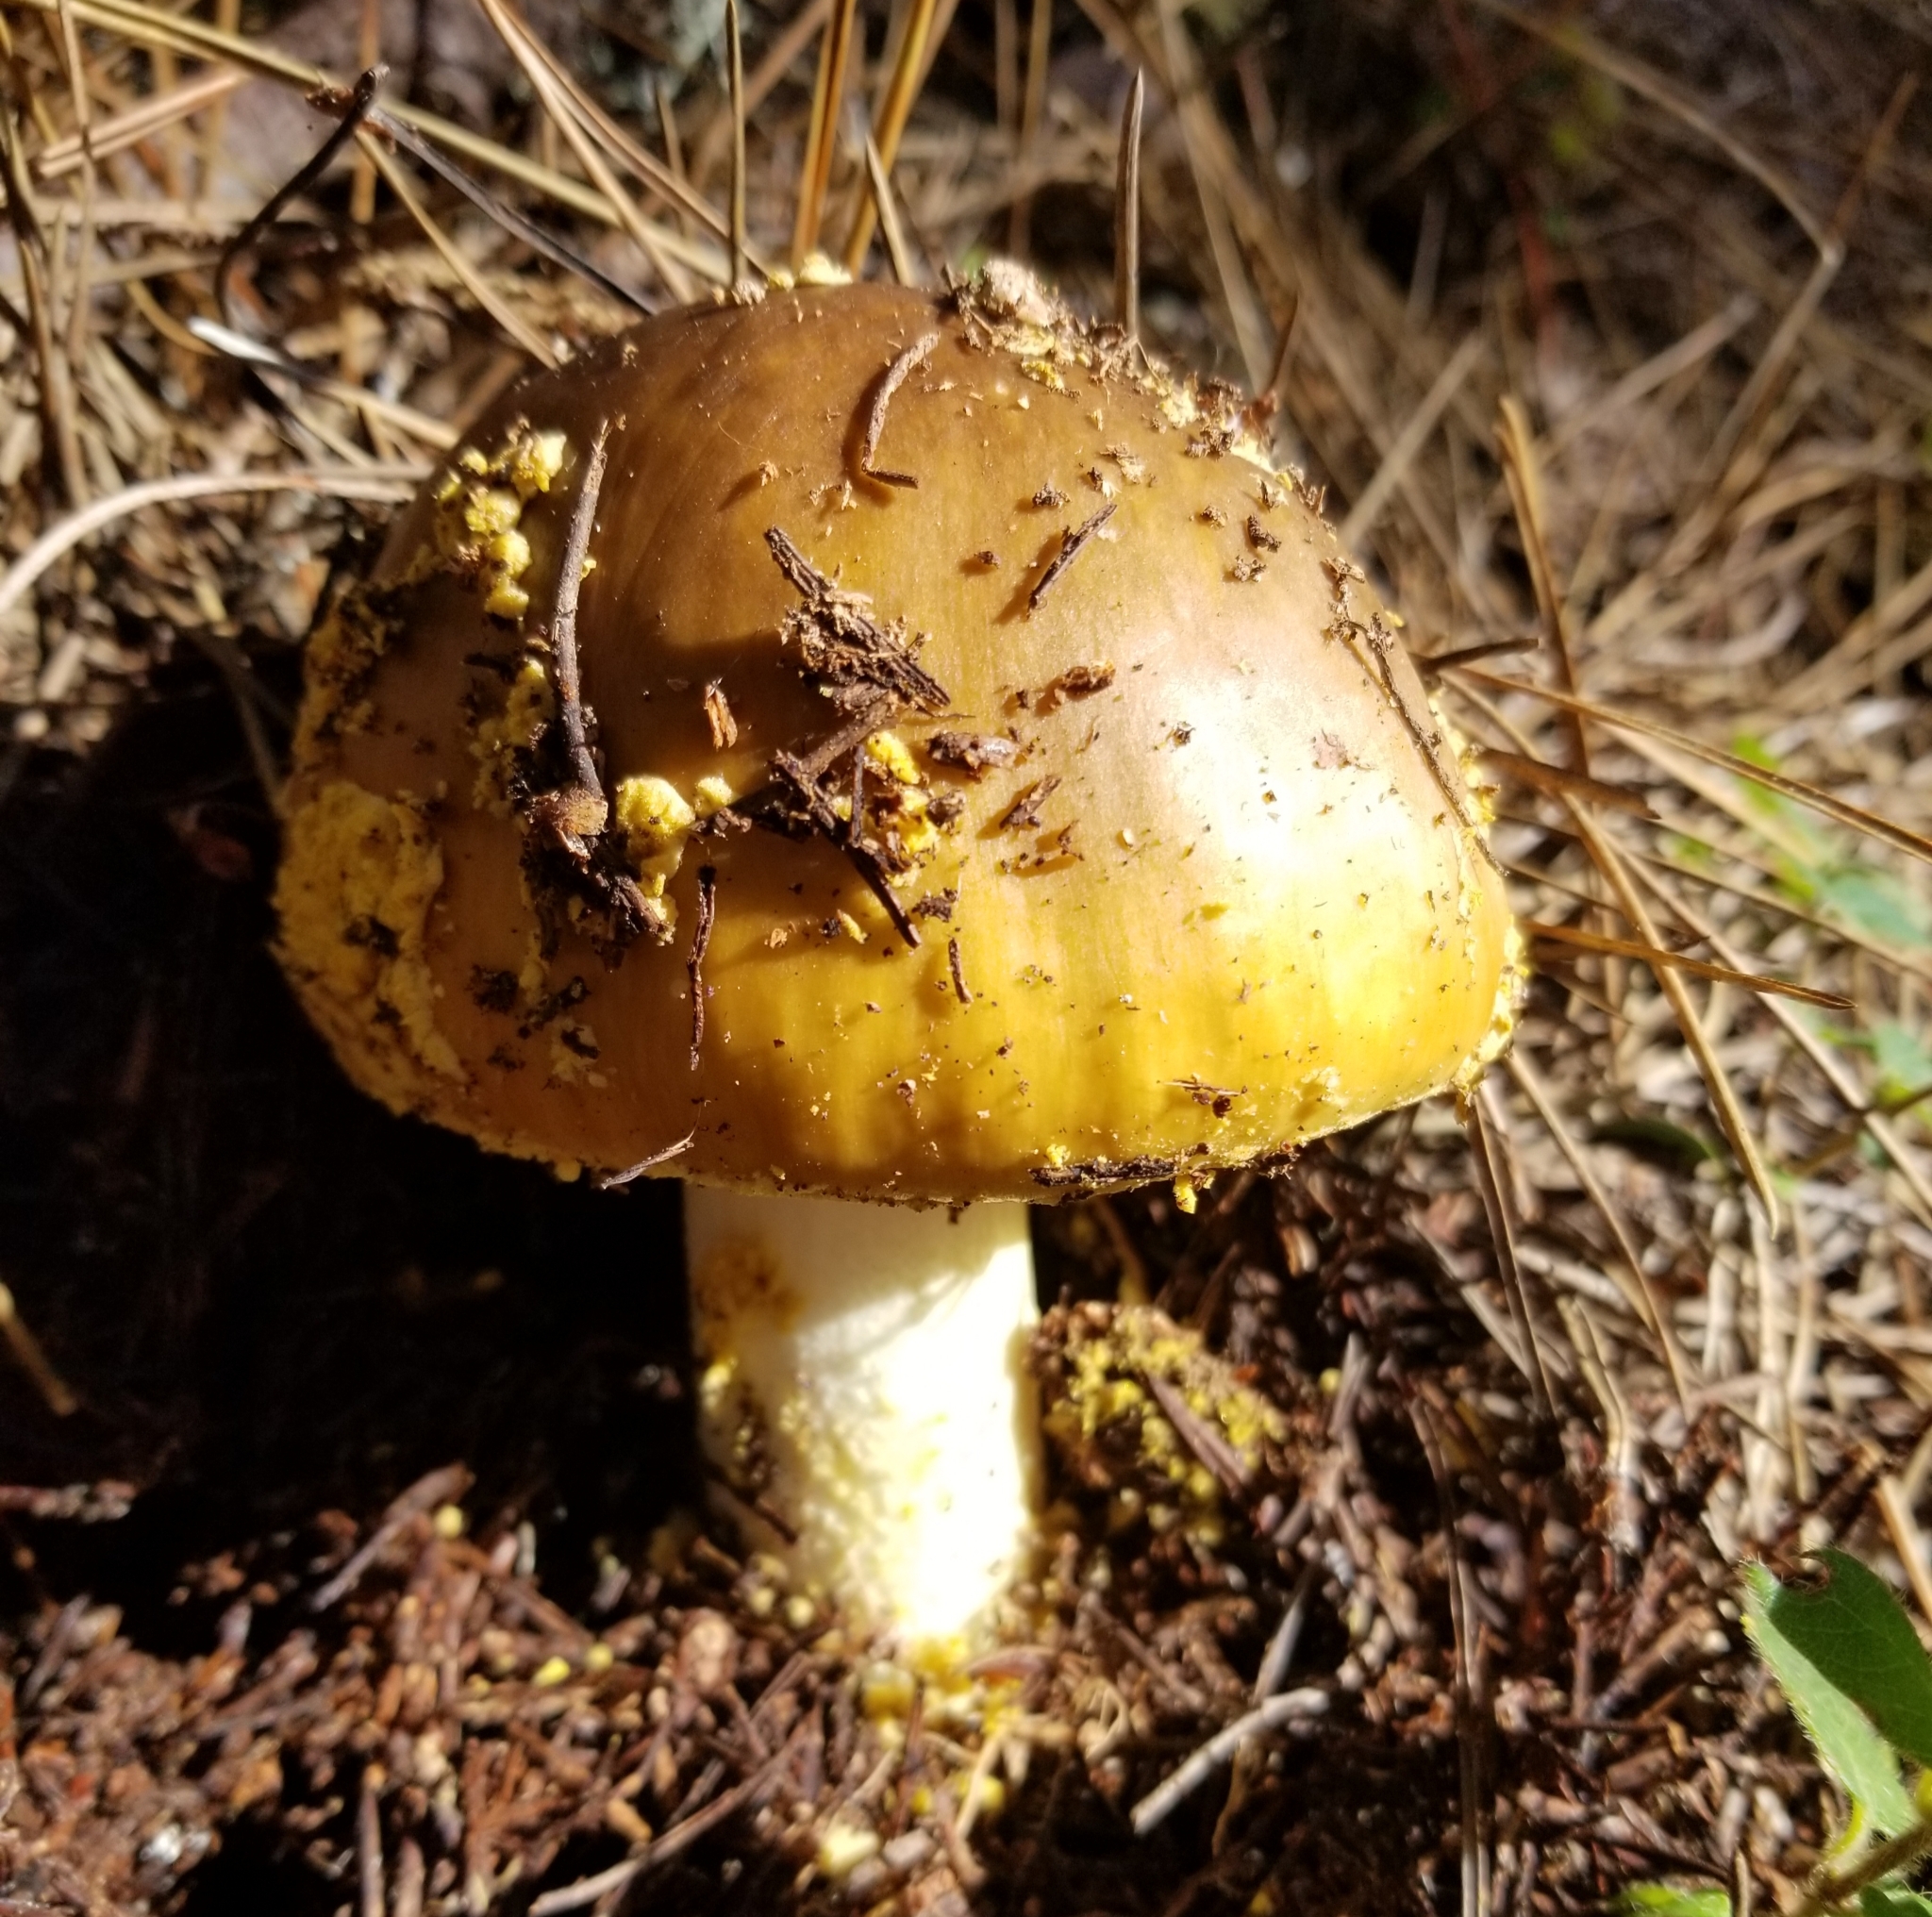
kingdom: Fungi
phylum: Basidiomycota
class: Agaricomycetes
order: Agaricales
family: Amanitaceae
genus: Amanita
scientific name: Amanita augusta
